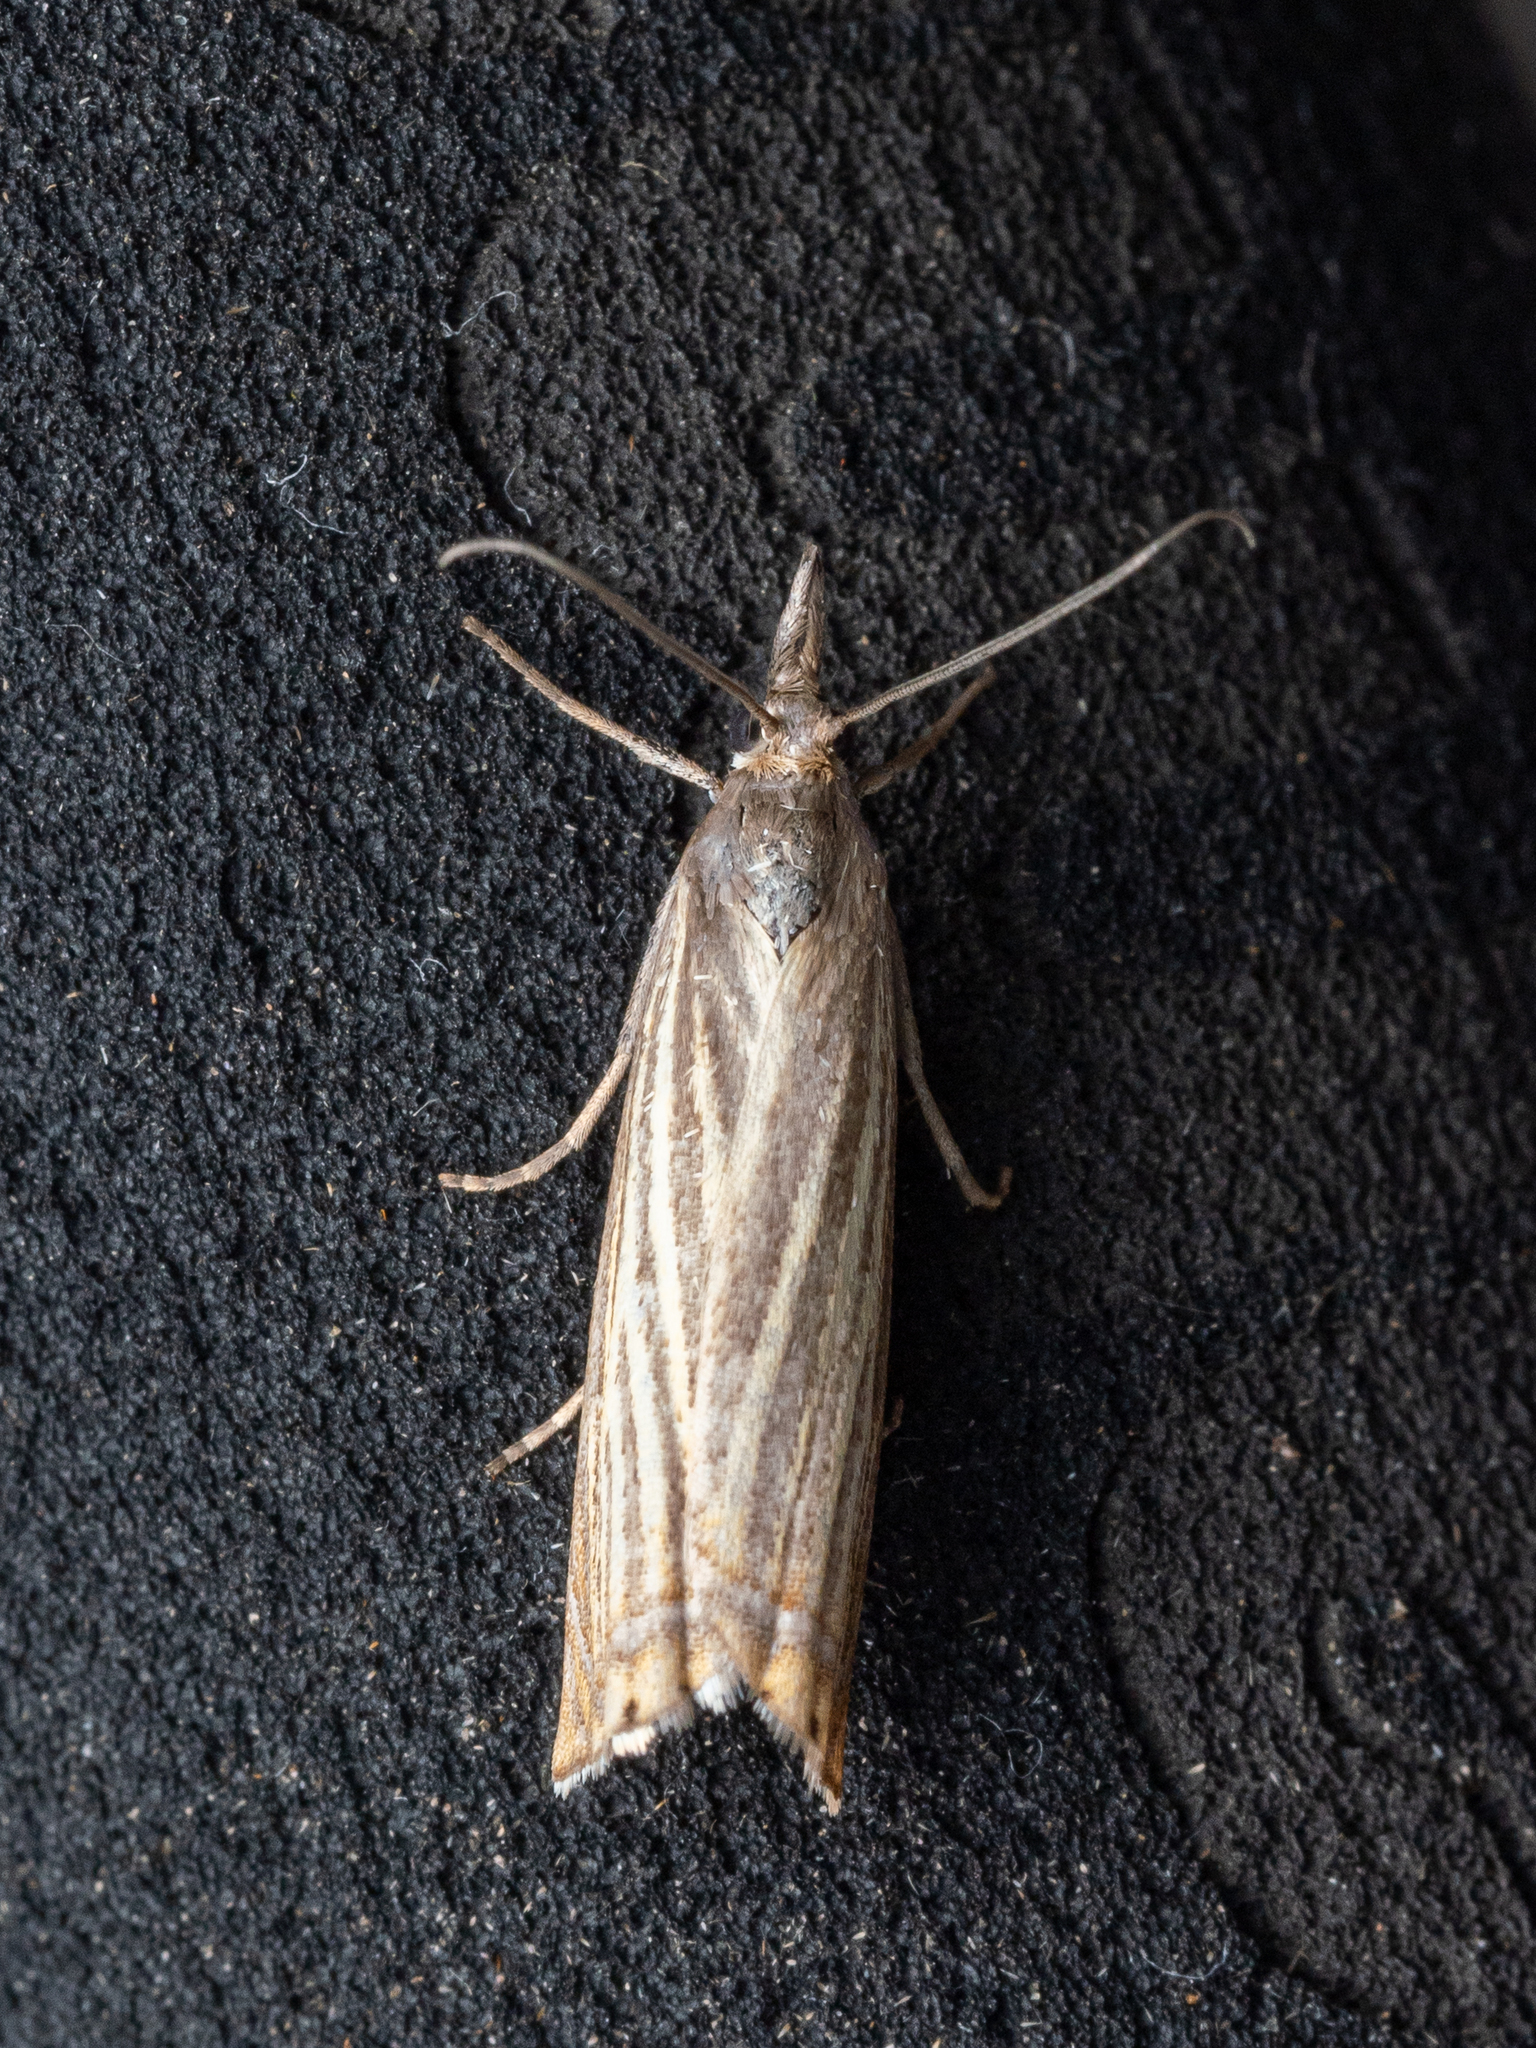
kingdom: Animalia
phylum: Arthropoda
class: Insecta
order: Lepidoptera
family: Crambidae
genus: Chrysoteuchia
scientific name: Chrysoteuchia culmella
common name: Garden grass-veneer
